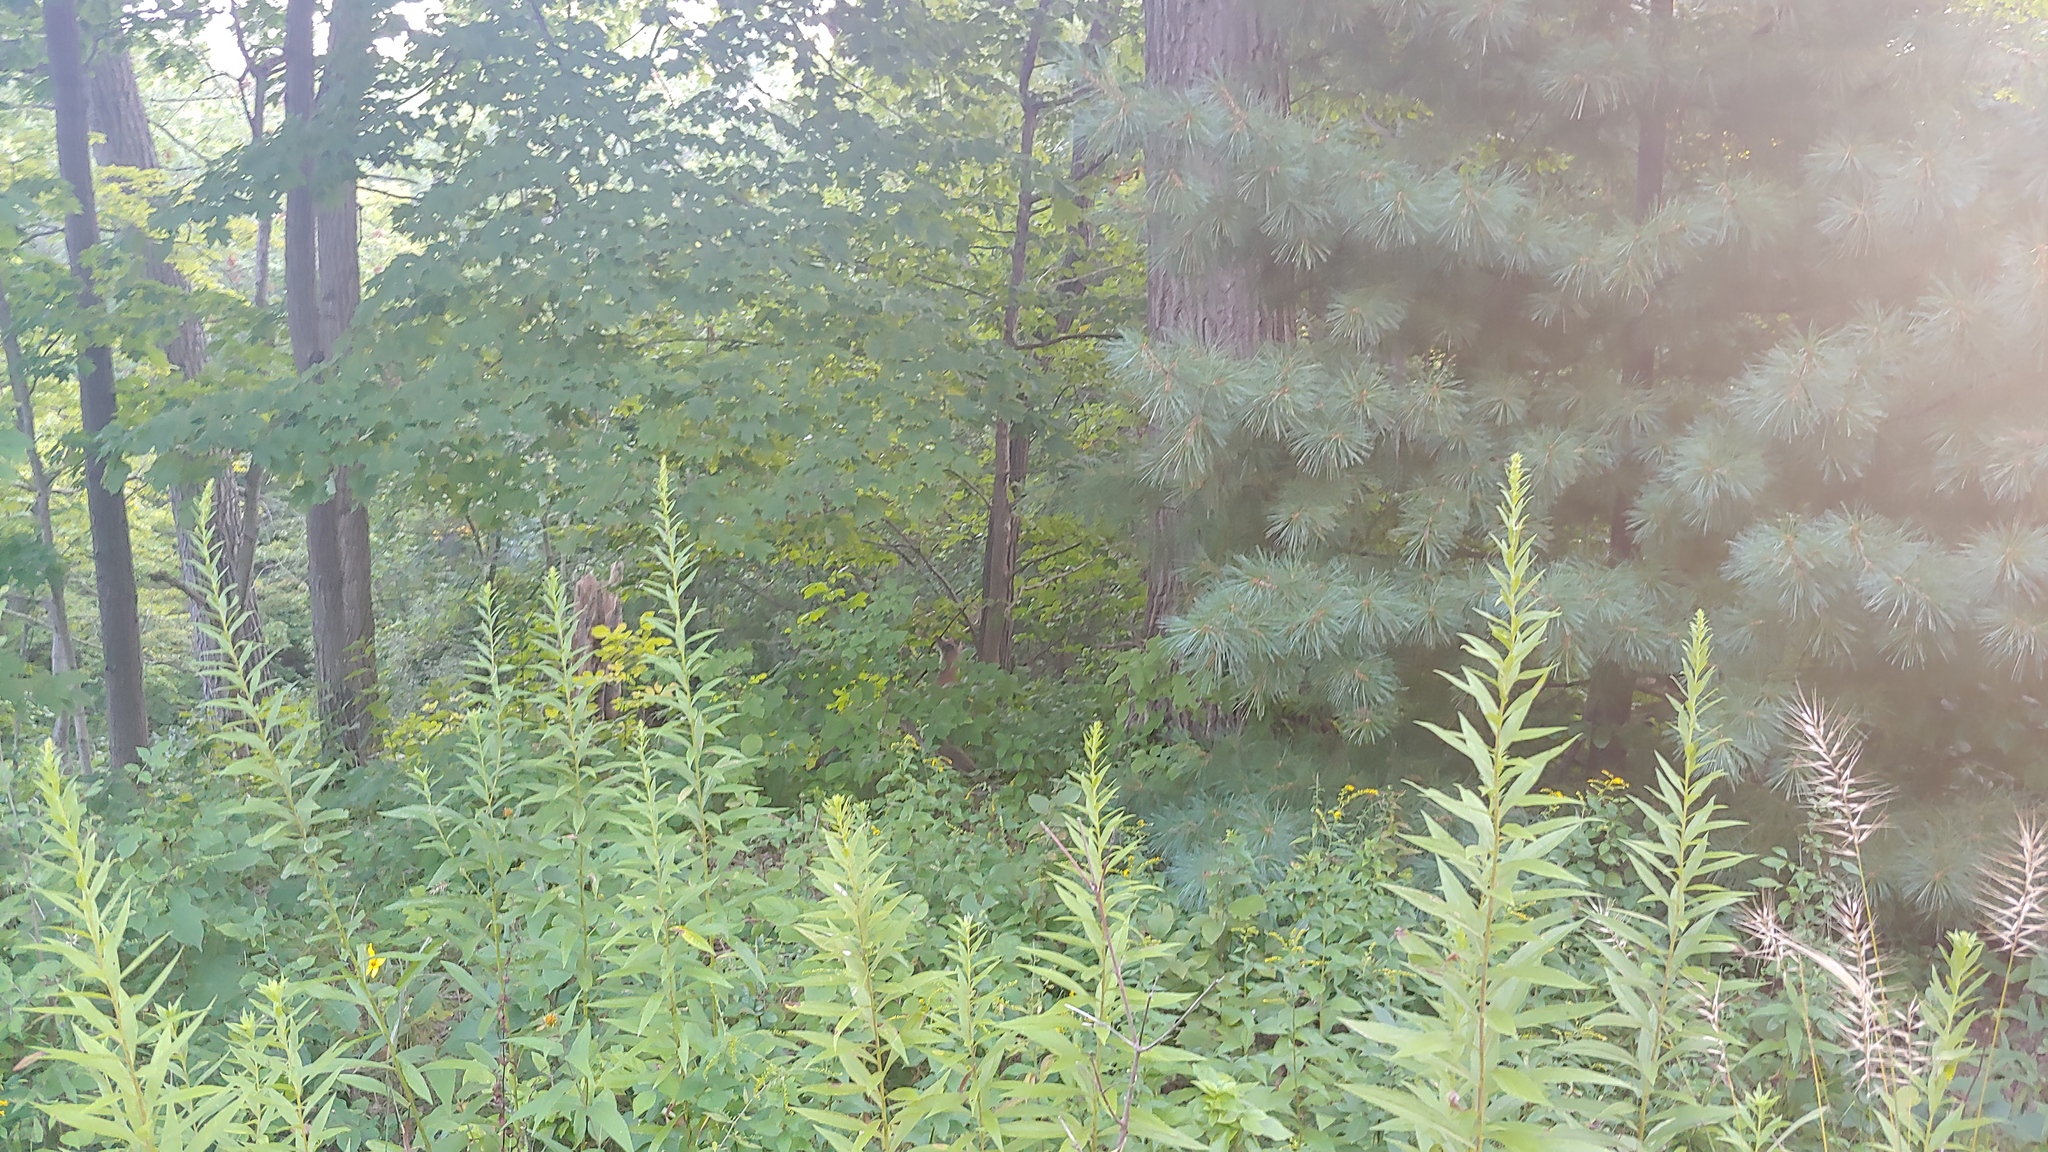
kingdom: Animalia
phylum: Chordata
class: Mammalia
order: Artiodactyla
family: Cervidae
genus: Odocoileus
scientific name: Odocoileus virginianus
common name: White-tailed deer
